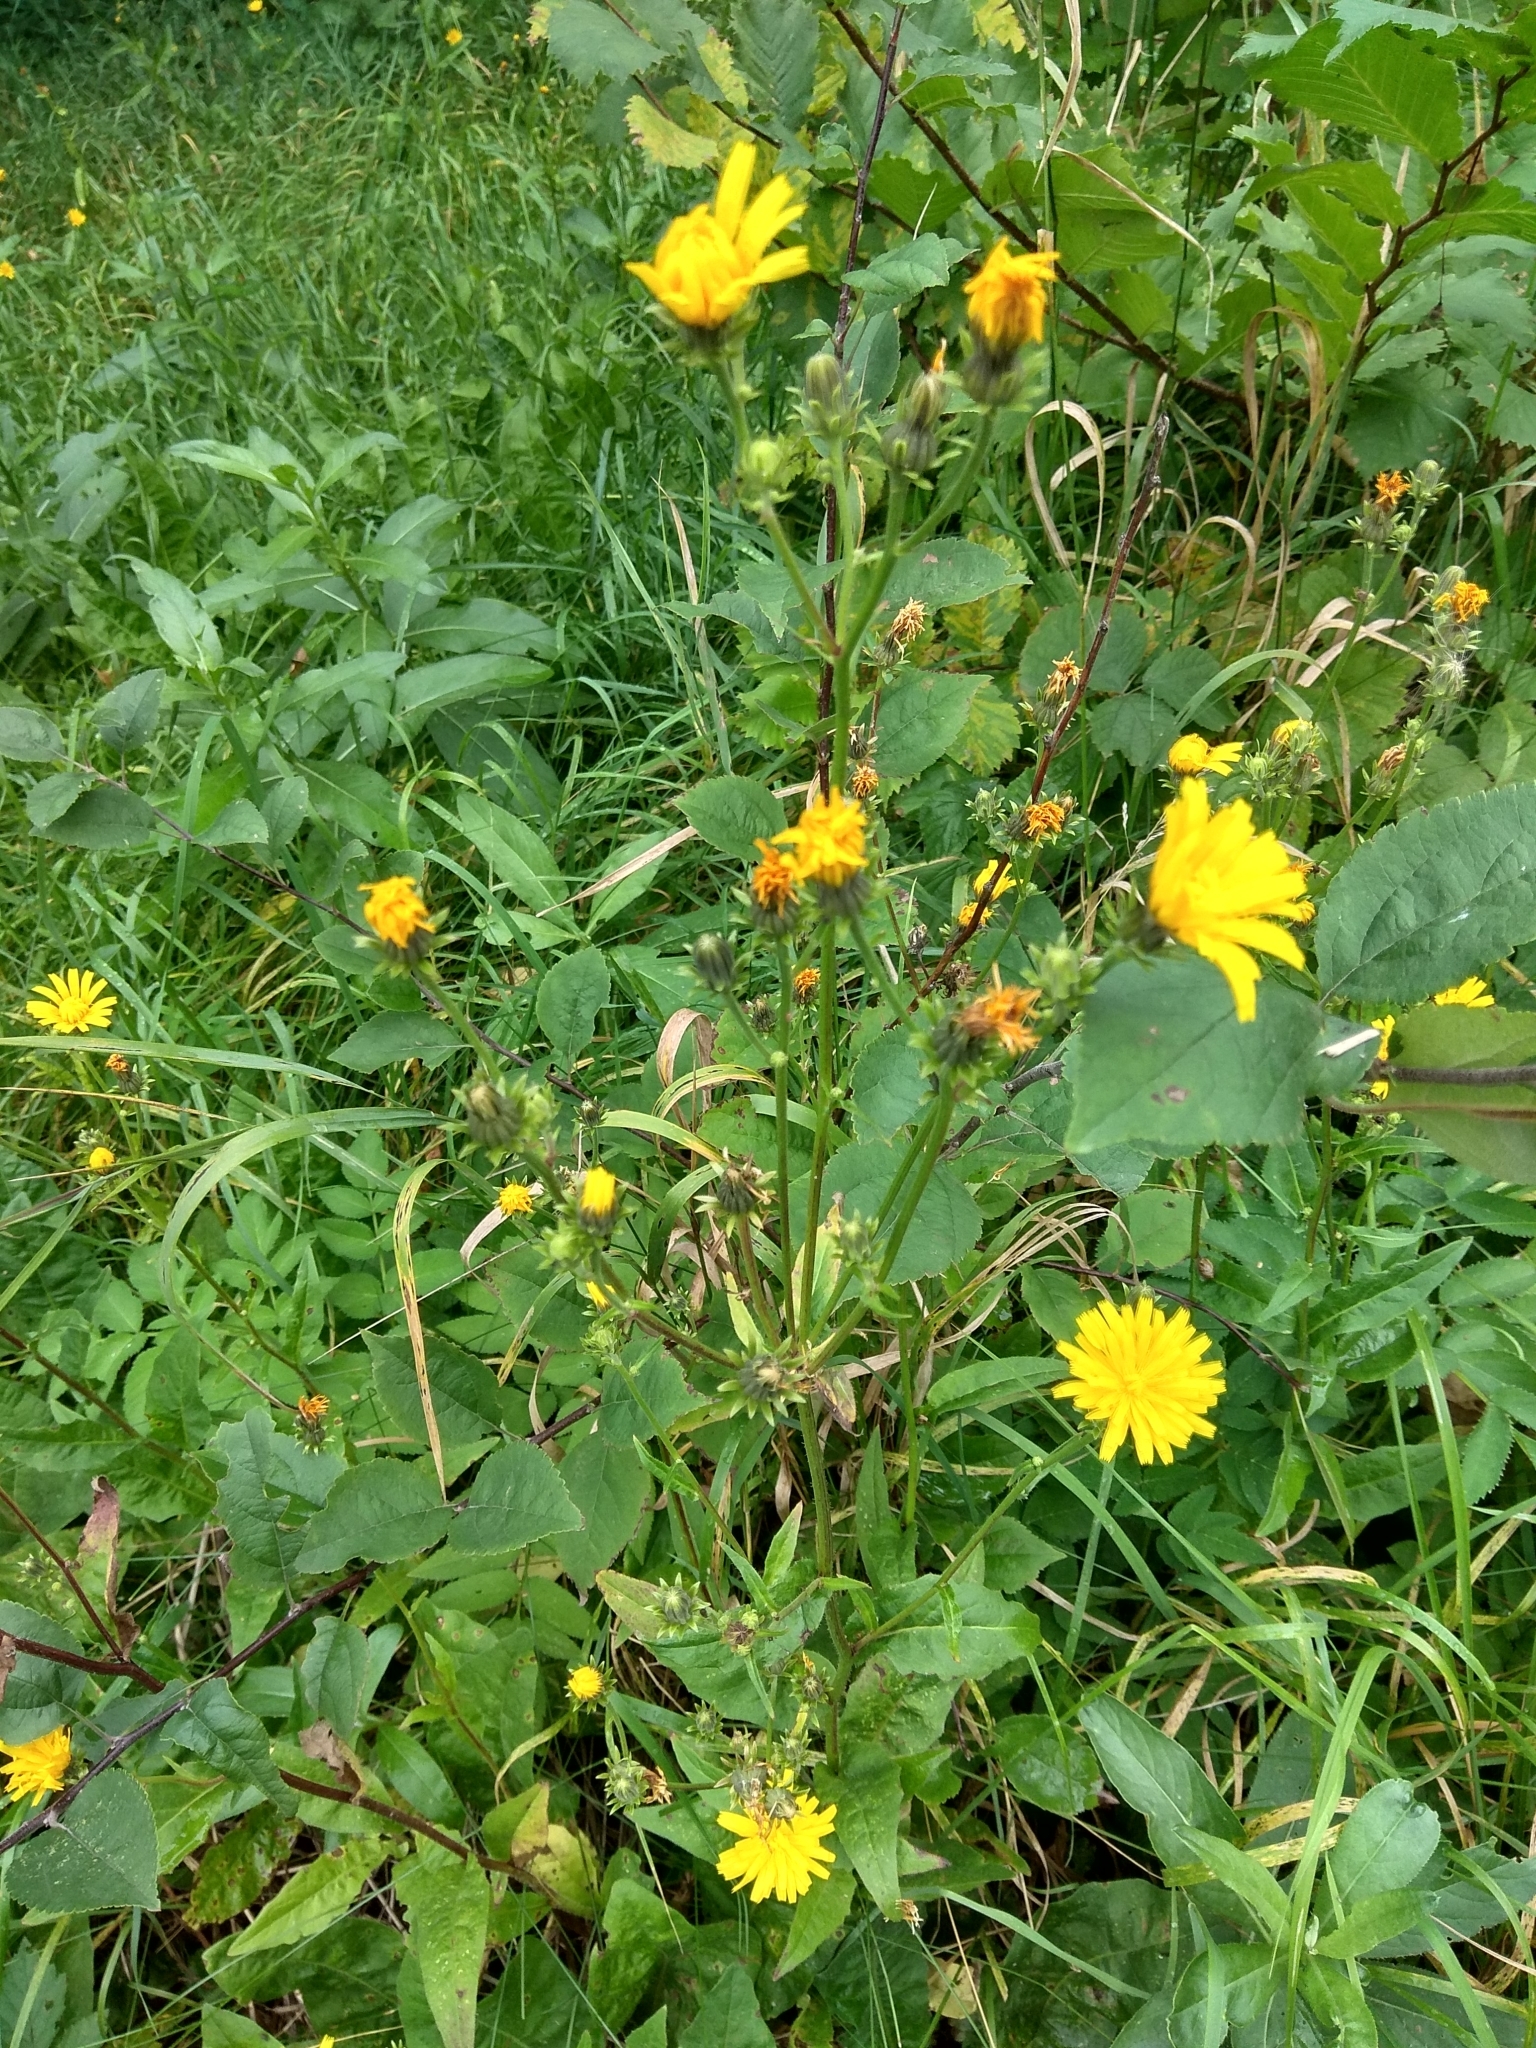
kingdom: Plantae
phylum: Tracheophyta
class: Magnoliopsida
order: Asterales
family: Asteraceae
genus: Picris
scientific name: Picris hieracioides
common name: Hawkweed oxtongue
